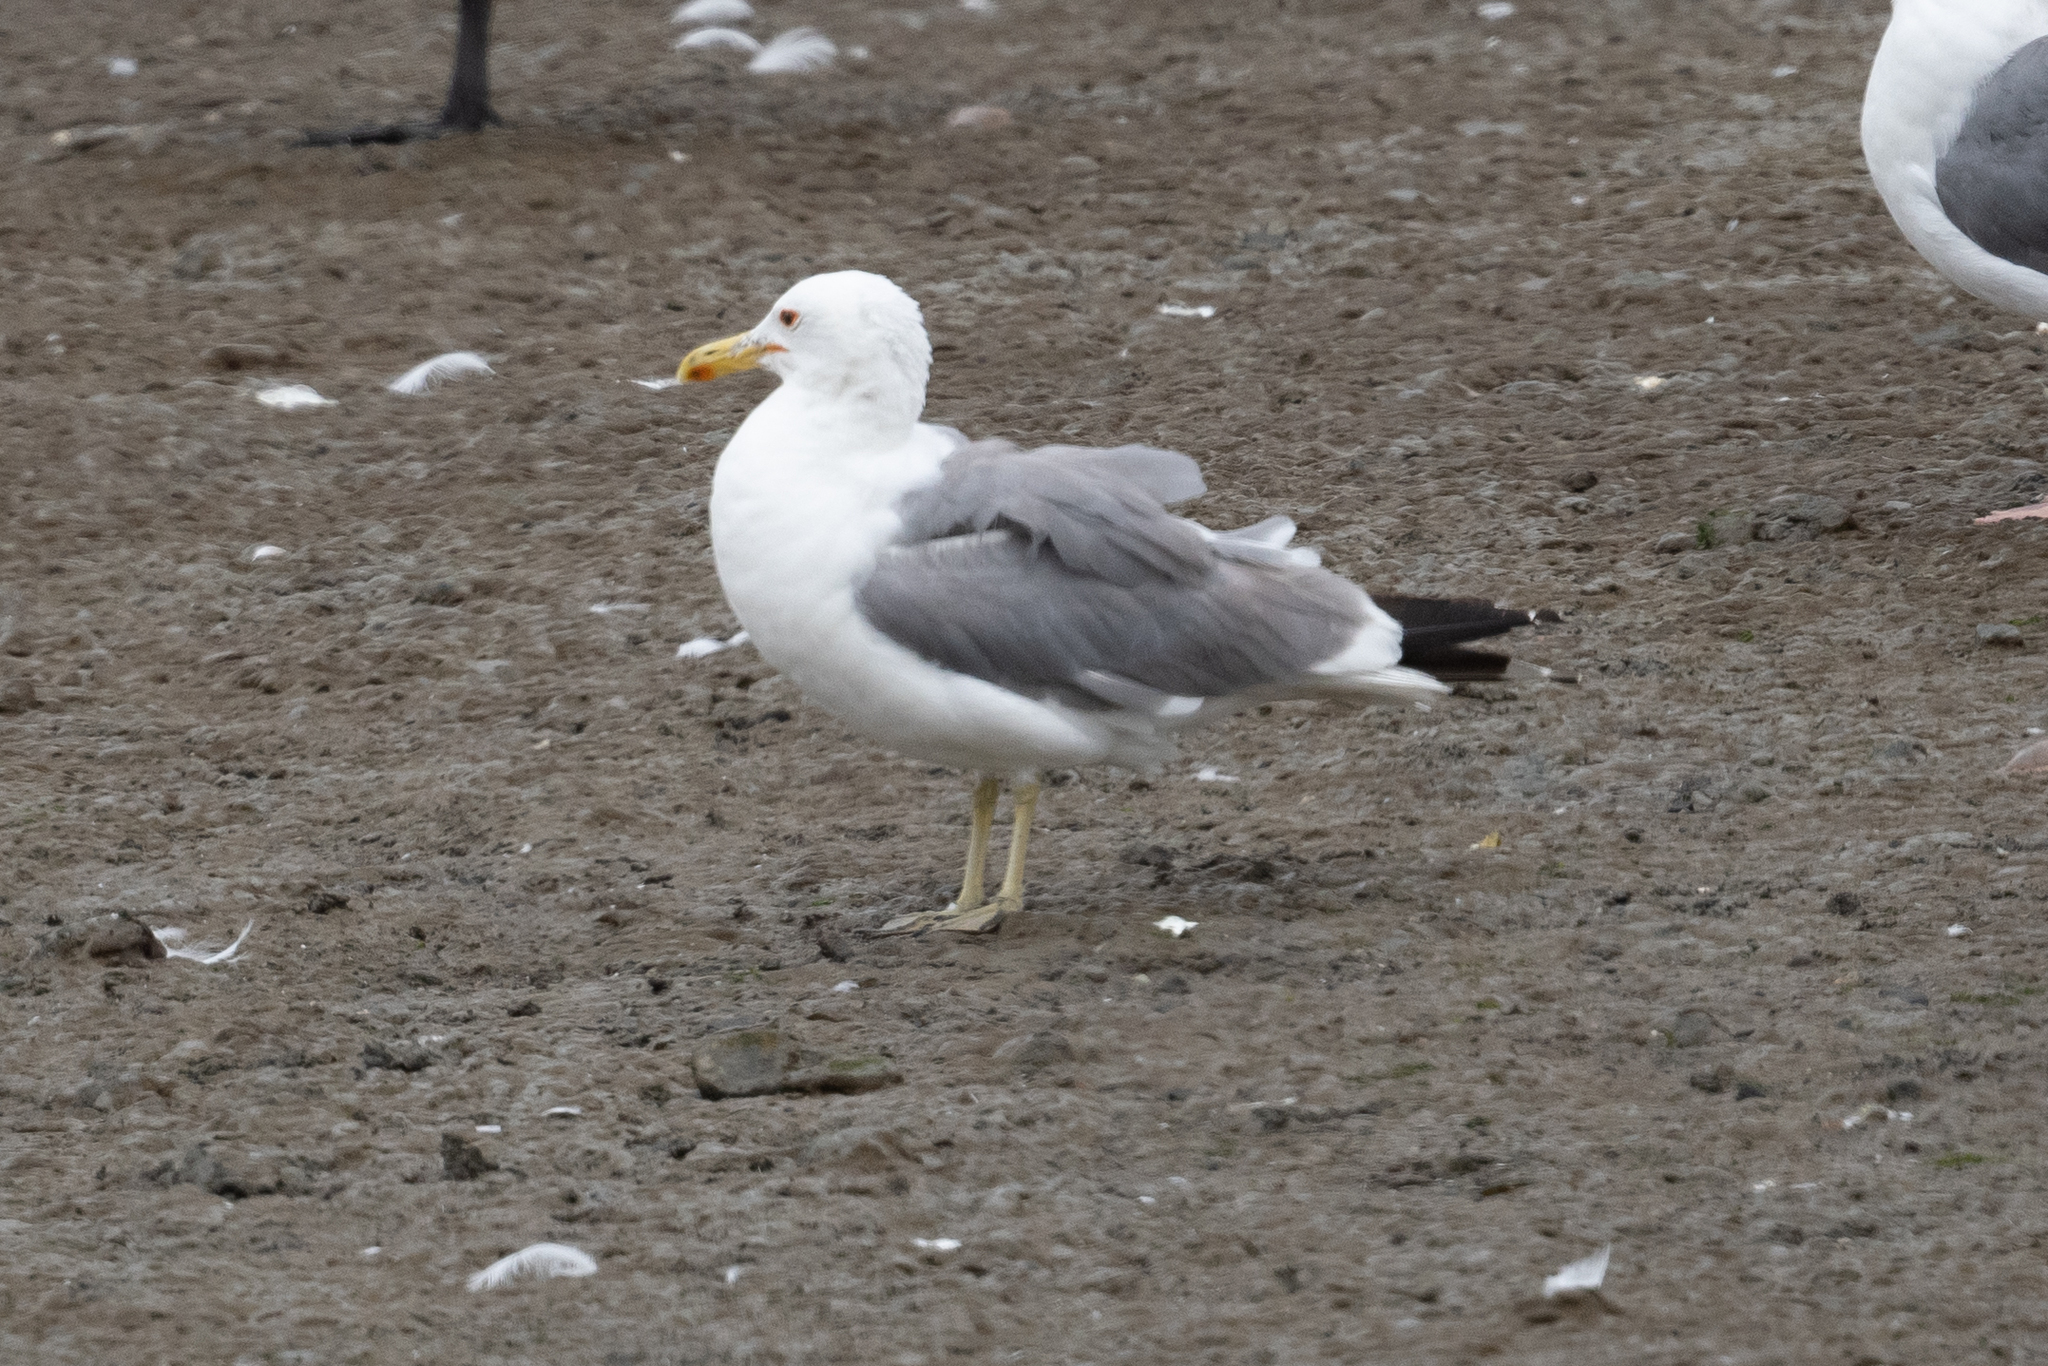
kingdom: Animalia
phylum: Chordata
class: Aves
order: Charadriiformes
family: Laridae
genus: Larus
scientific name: Larus californicus
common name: California gull
